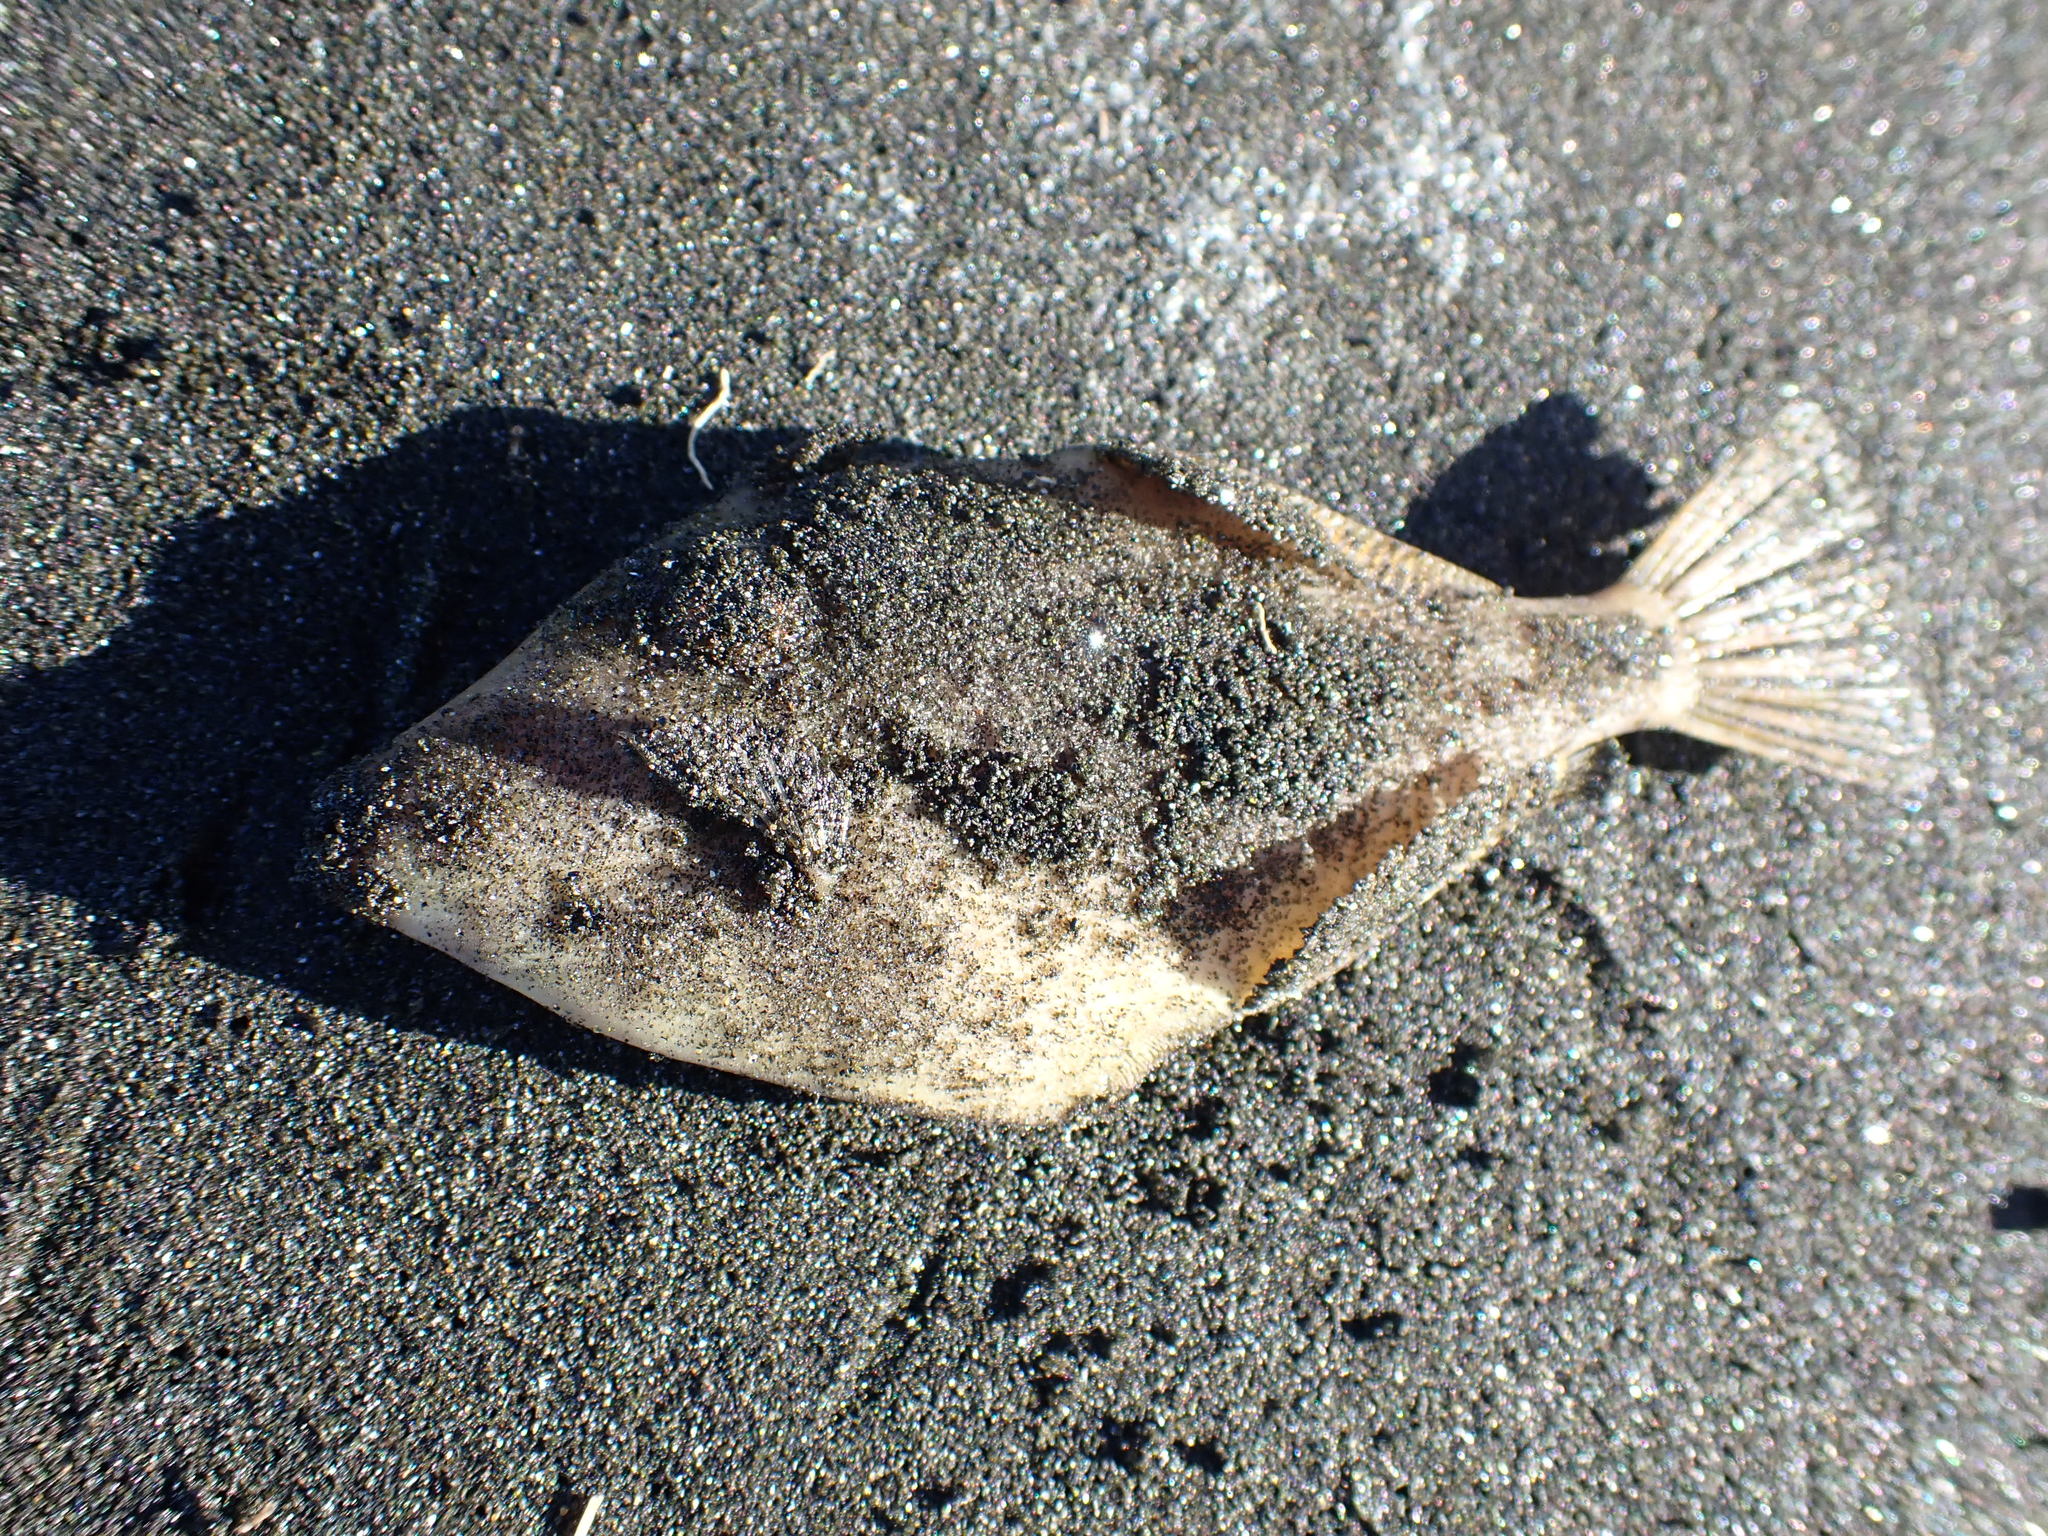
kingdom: Animalia
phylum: Chordata
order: Tetraodontiformes
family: Monacanthidae
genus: Meuschenia
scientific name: Meuschenia scaber
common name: Cosmopolitan leatherjacket
